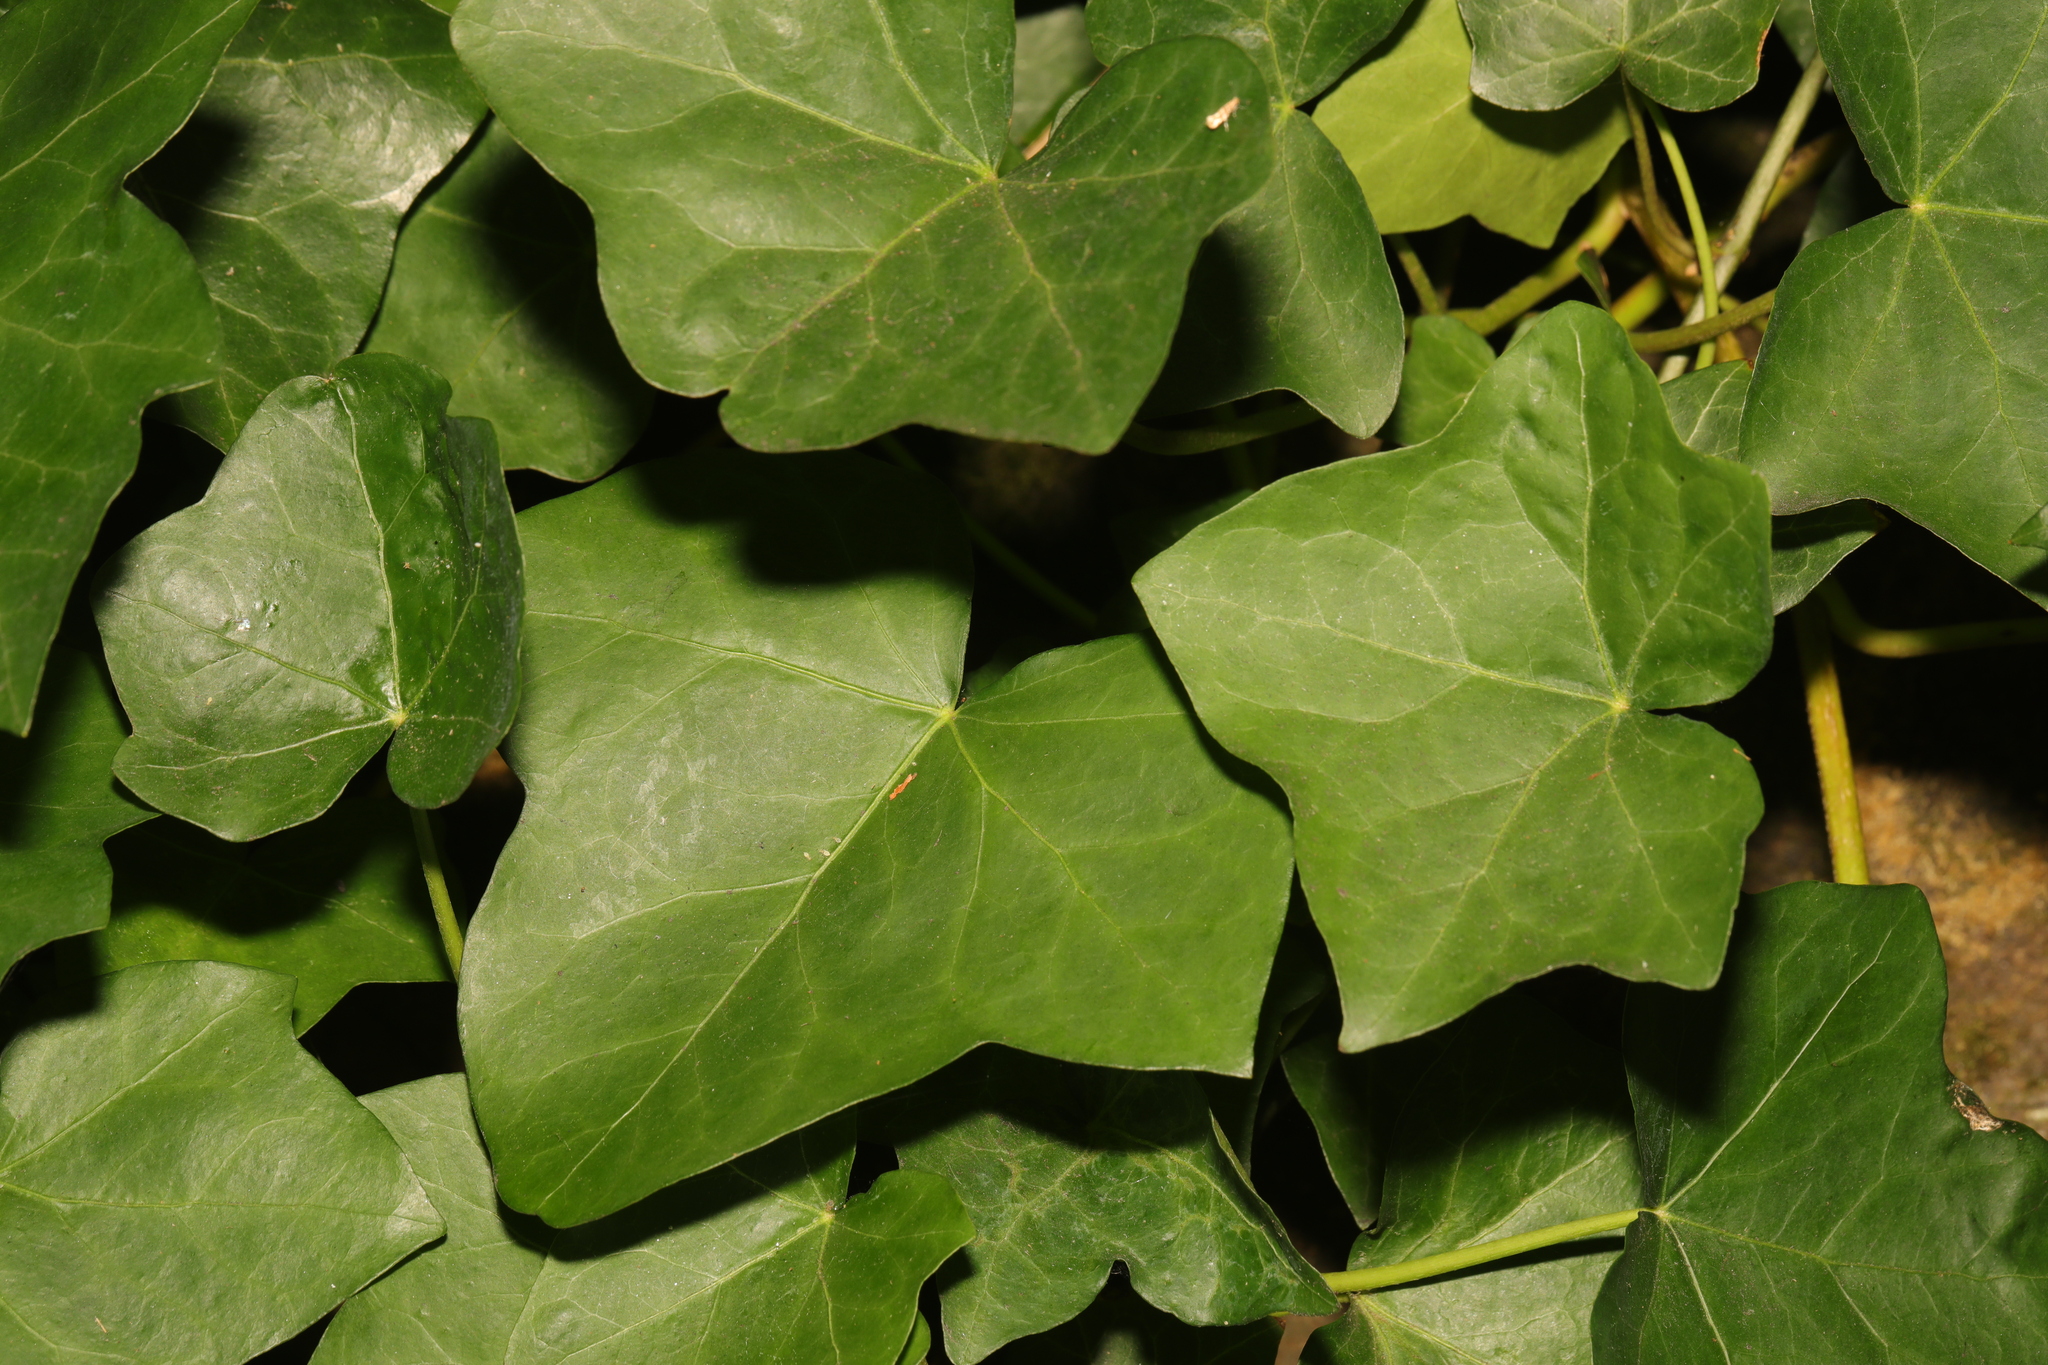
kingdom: Plantae
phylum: Tracheophyta
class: Magnoliopsida
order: Apiales
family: Araliaceae
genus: Hedera
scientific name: Hedera helix
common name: Ivy
